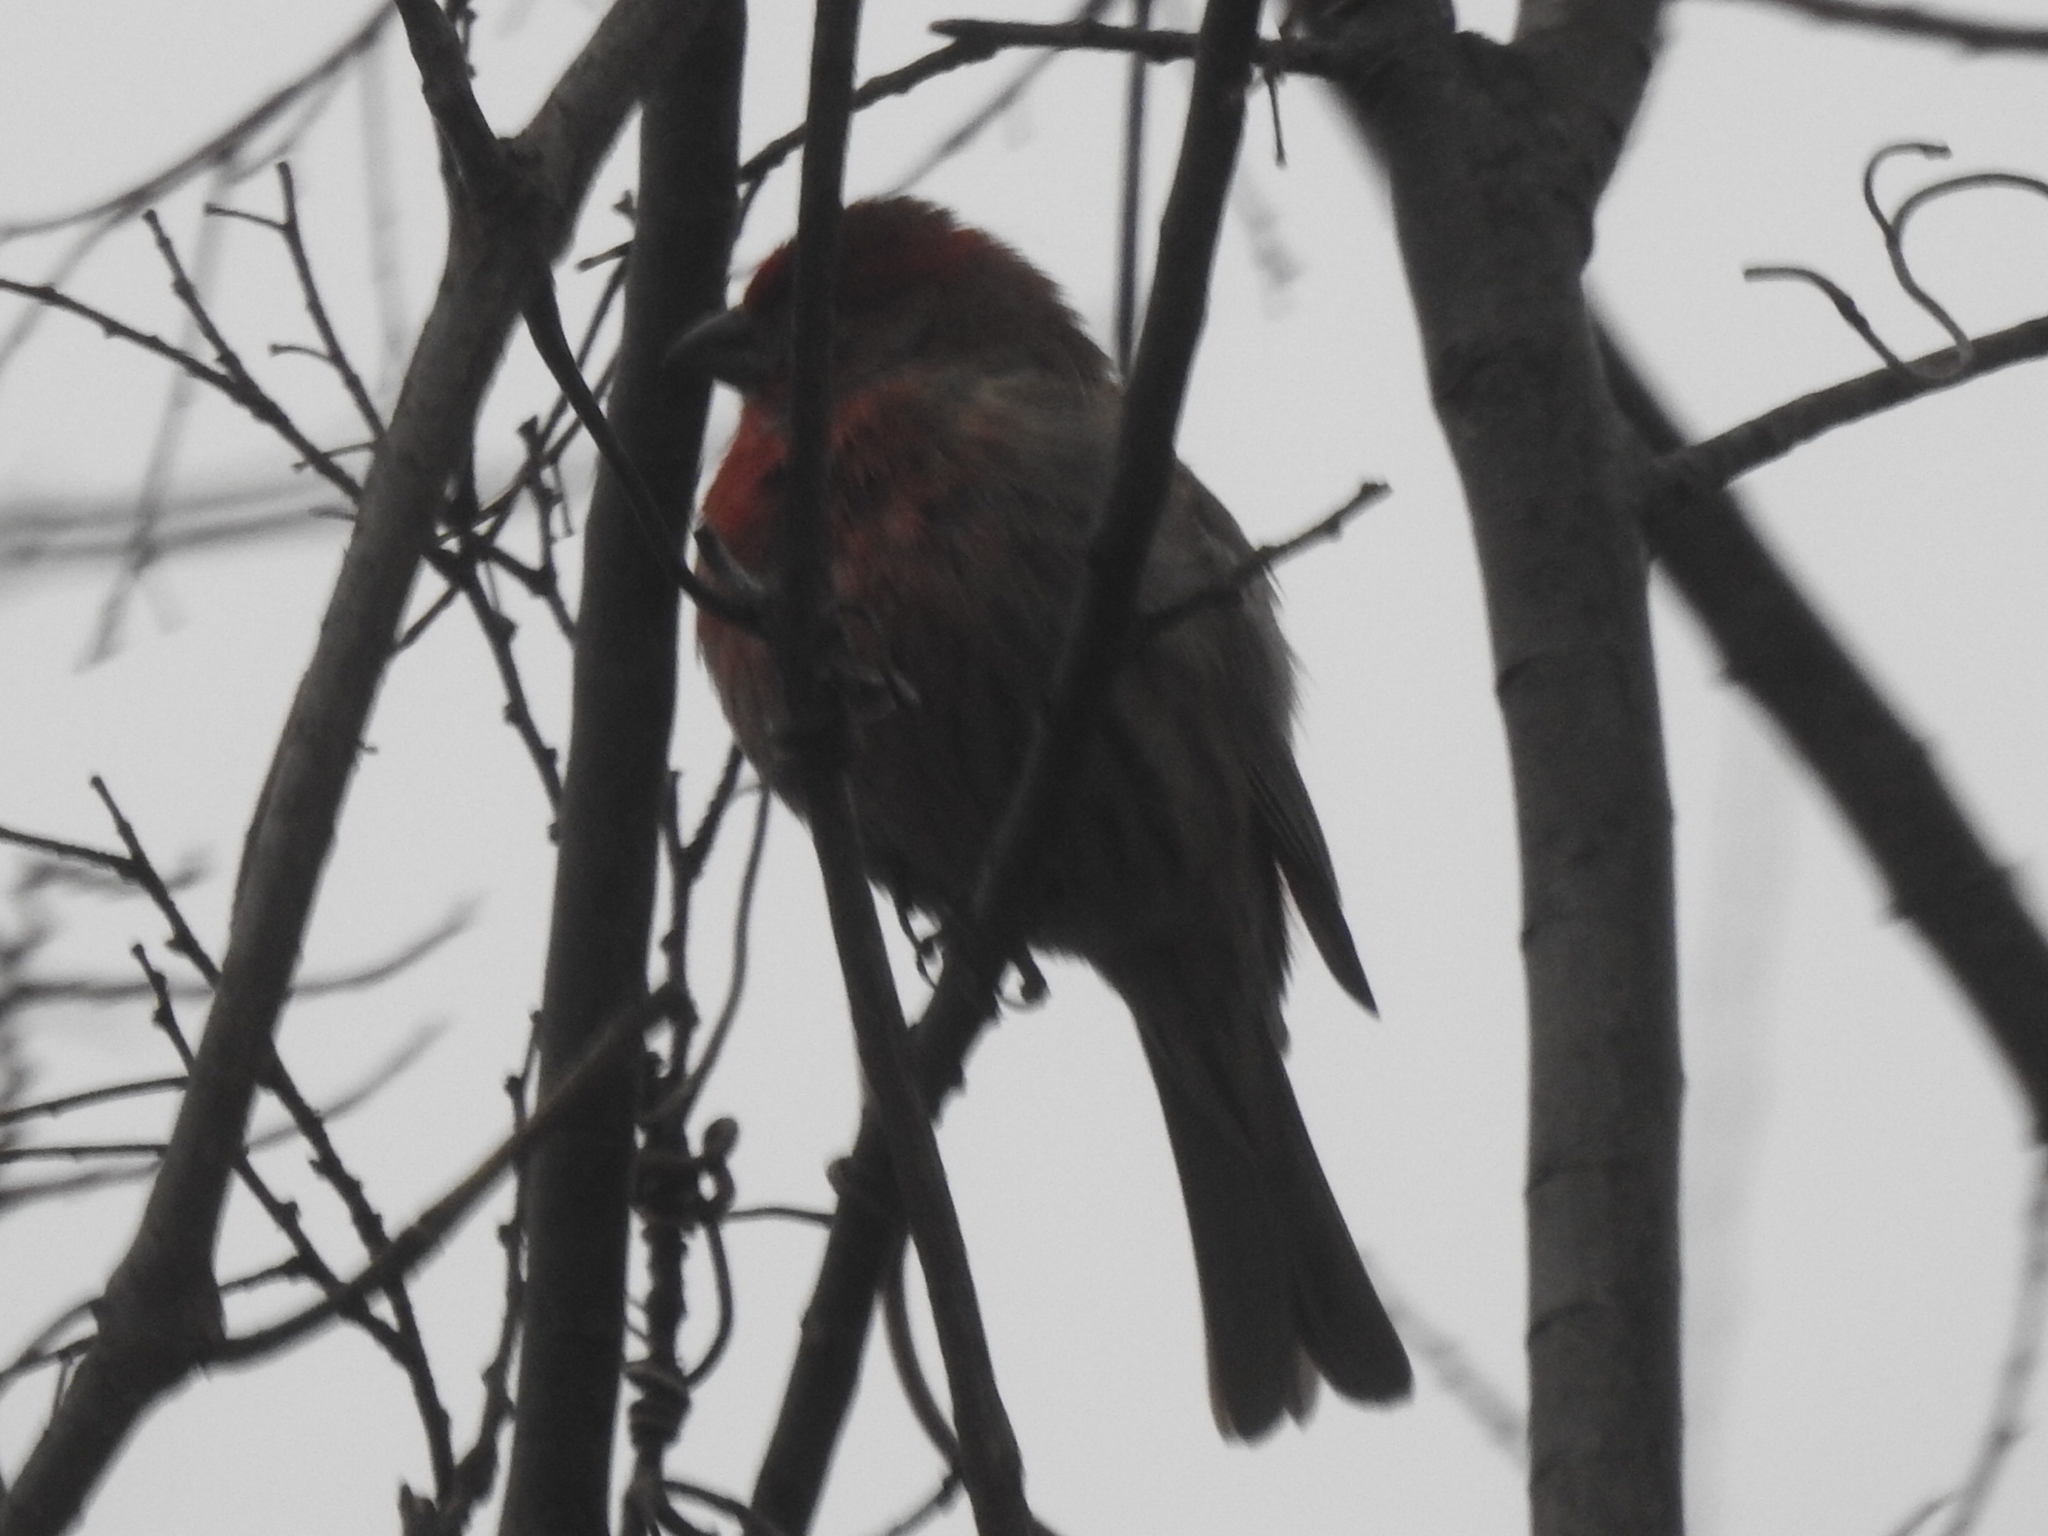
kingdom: Animalia
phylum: Chordata
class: Aves
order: Passeriformes
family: Fringillidae
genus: Haemorhous
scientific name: Haemorhous mexicanus
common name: House finch
